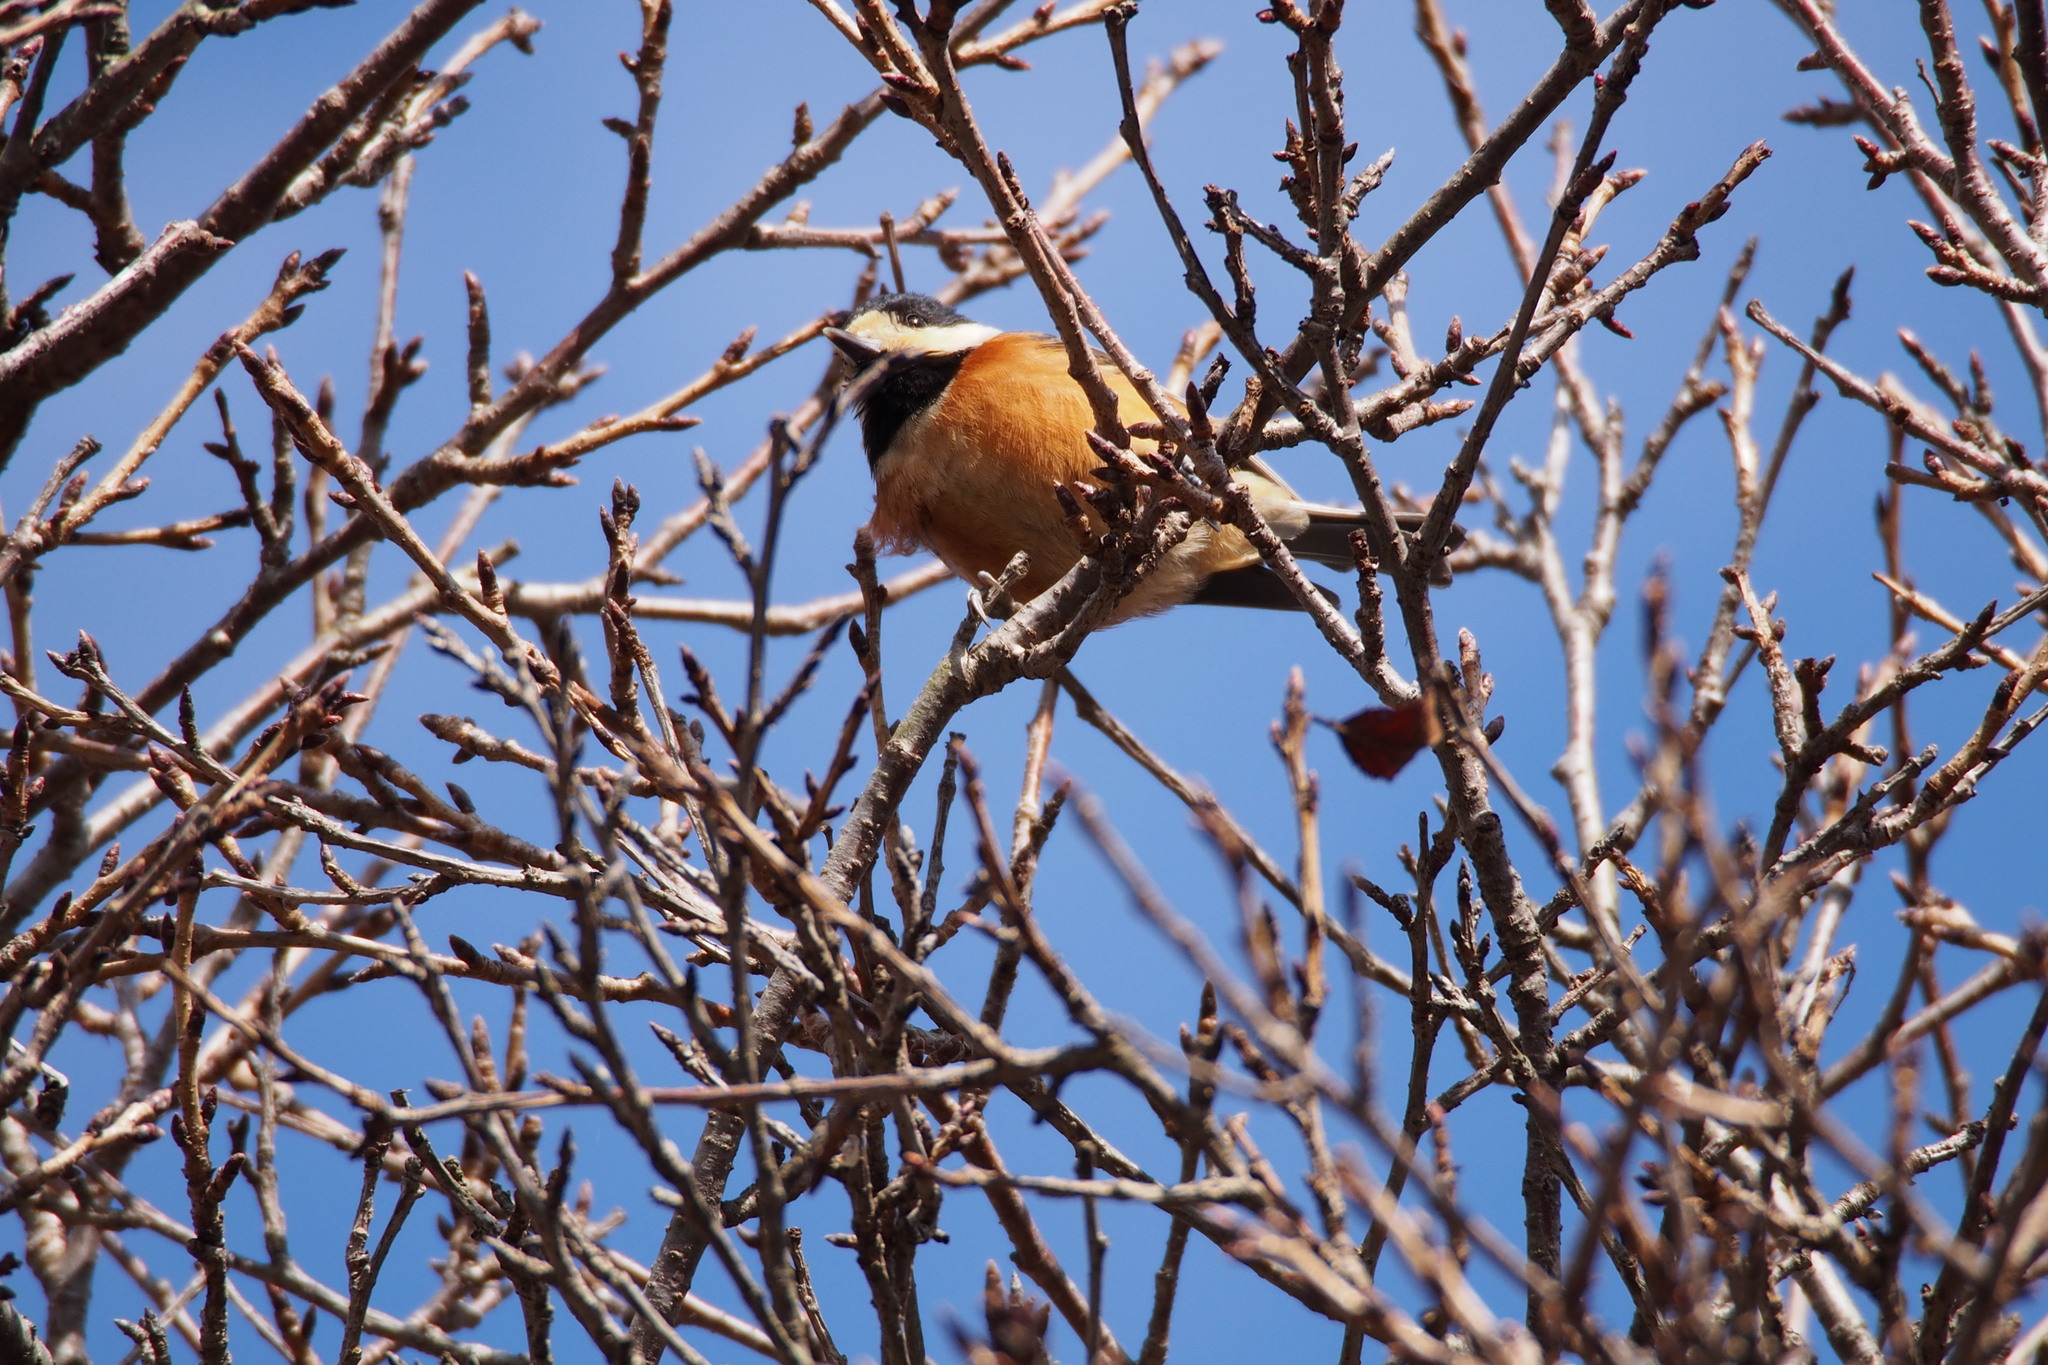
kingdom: Animalia
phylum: Chordata
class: Aves
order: Passeriformes
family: Paridae
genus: Poecile
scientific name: Poecile varius
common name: Varied tit
